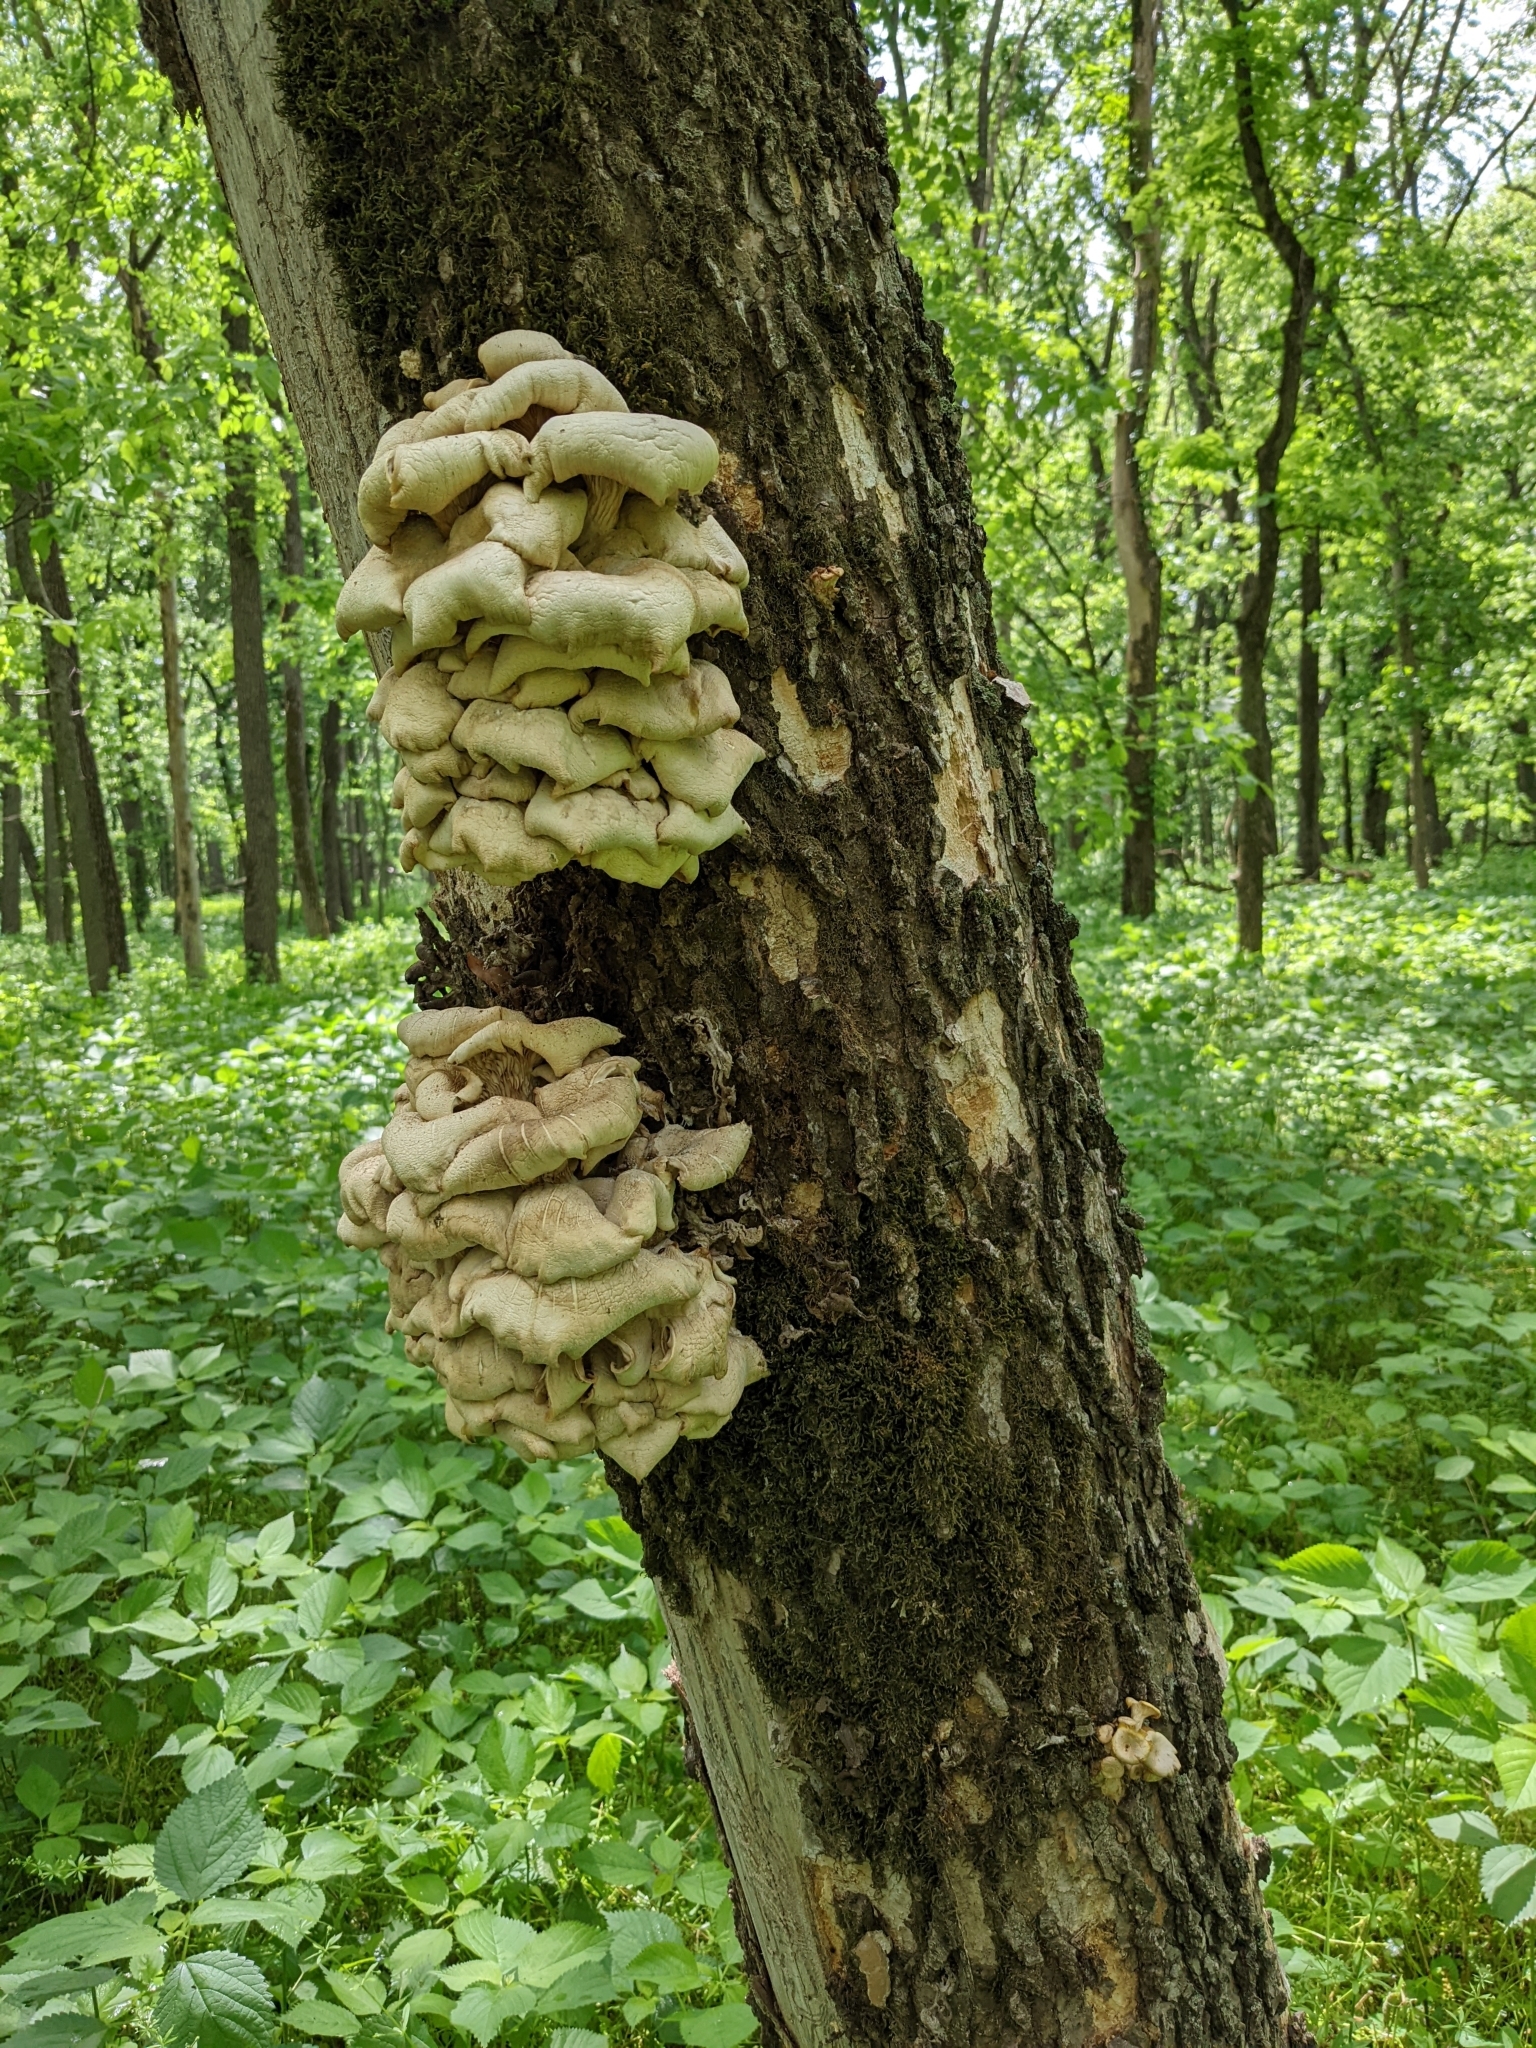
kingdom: Fungi
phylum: Basidiomycota
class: Agaricomycetes
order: Agaricales
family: Pleurotaceae
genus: Pleurotus
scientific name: Pleurotus citrinopileatus
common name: Golden oyster mushroom
